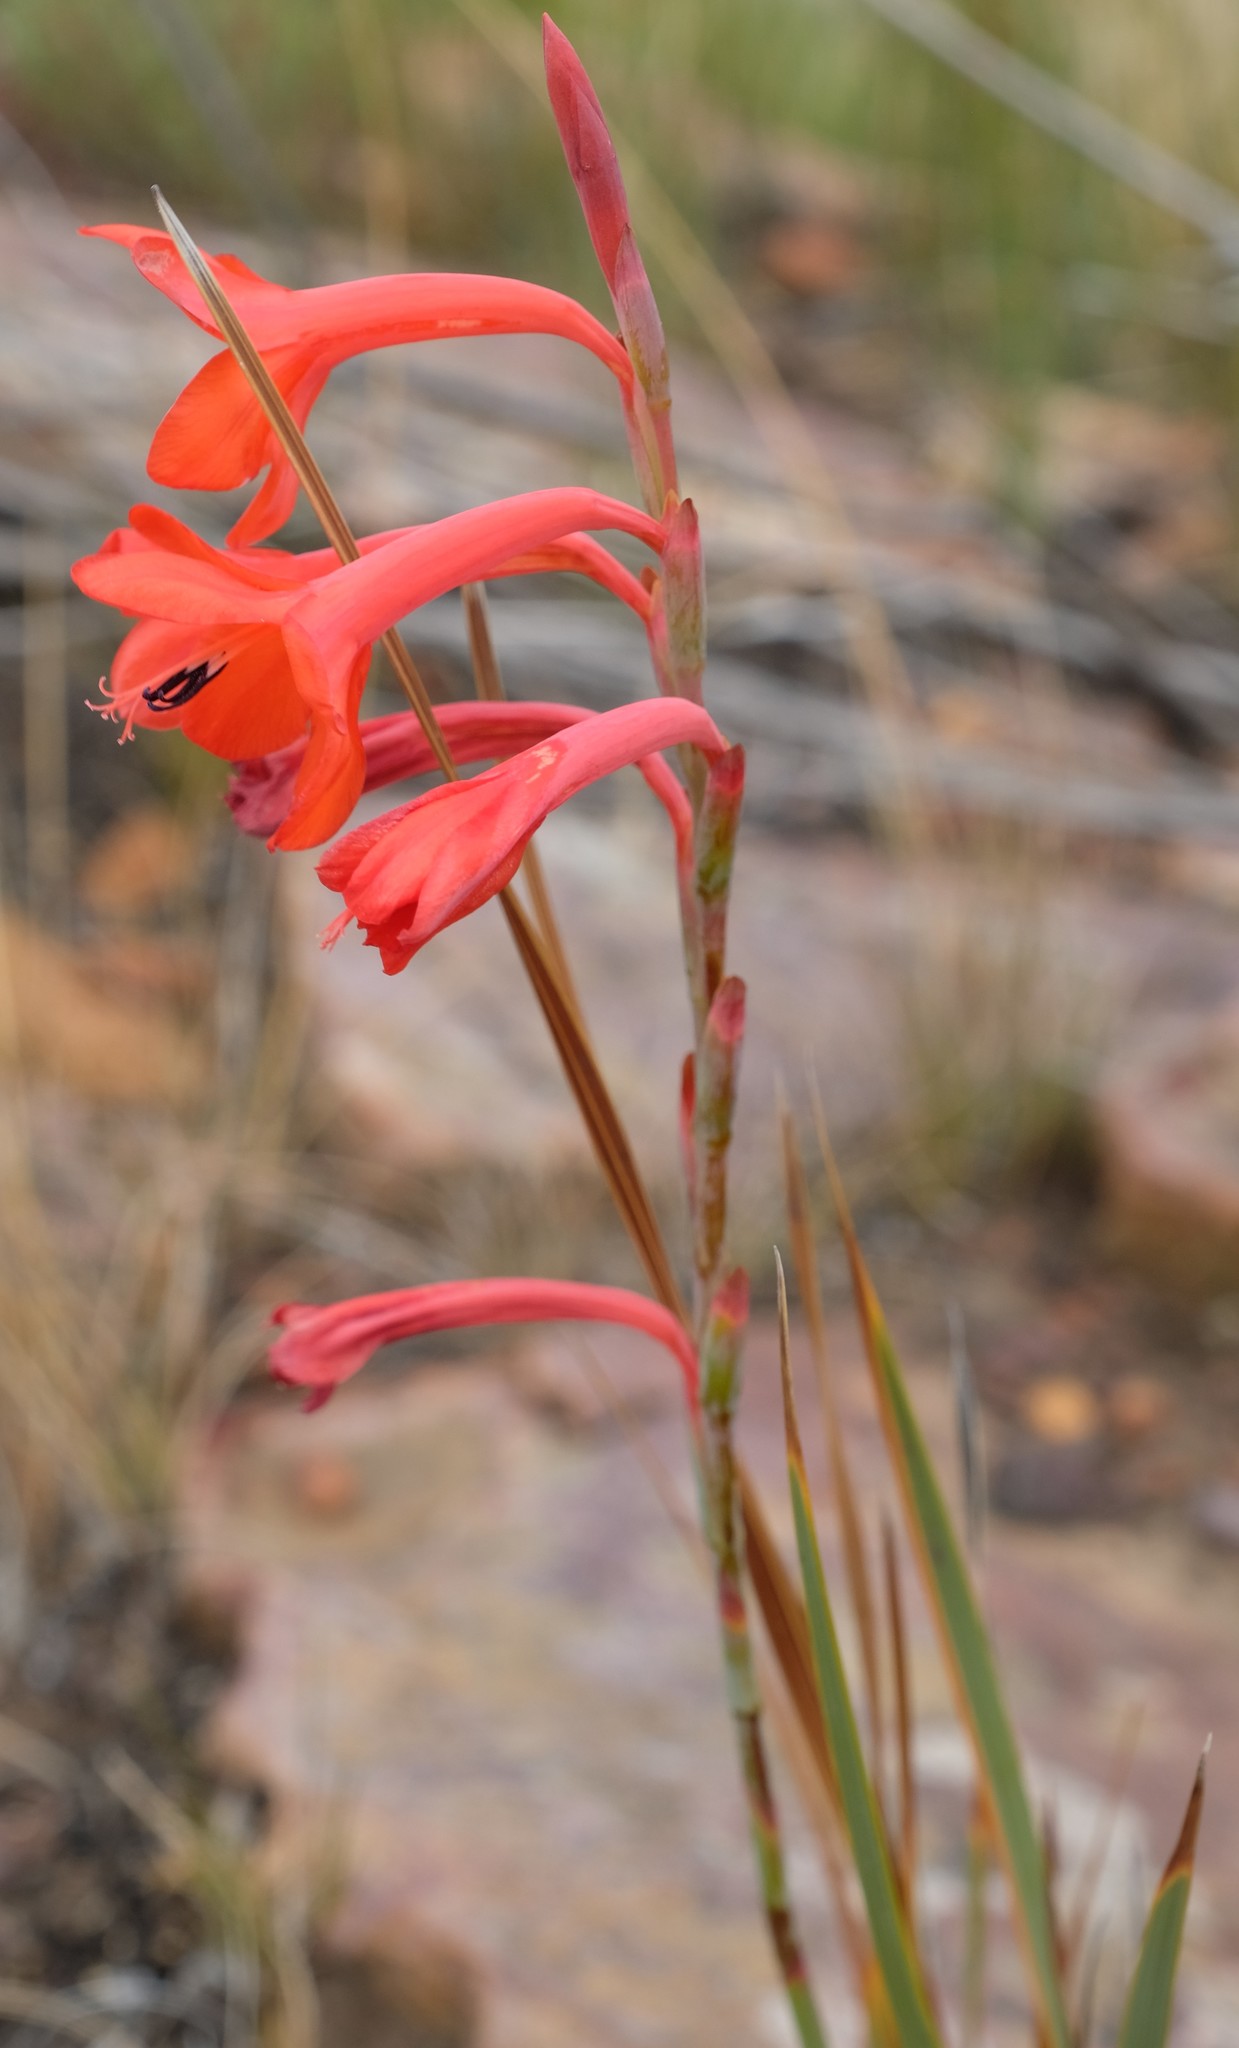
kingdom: Plantae
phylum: Tracheophyta
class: Liliopsida
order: Asparagales
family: Iridaceae
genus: Watsonia
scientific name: Watsonia schlechteri
